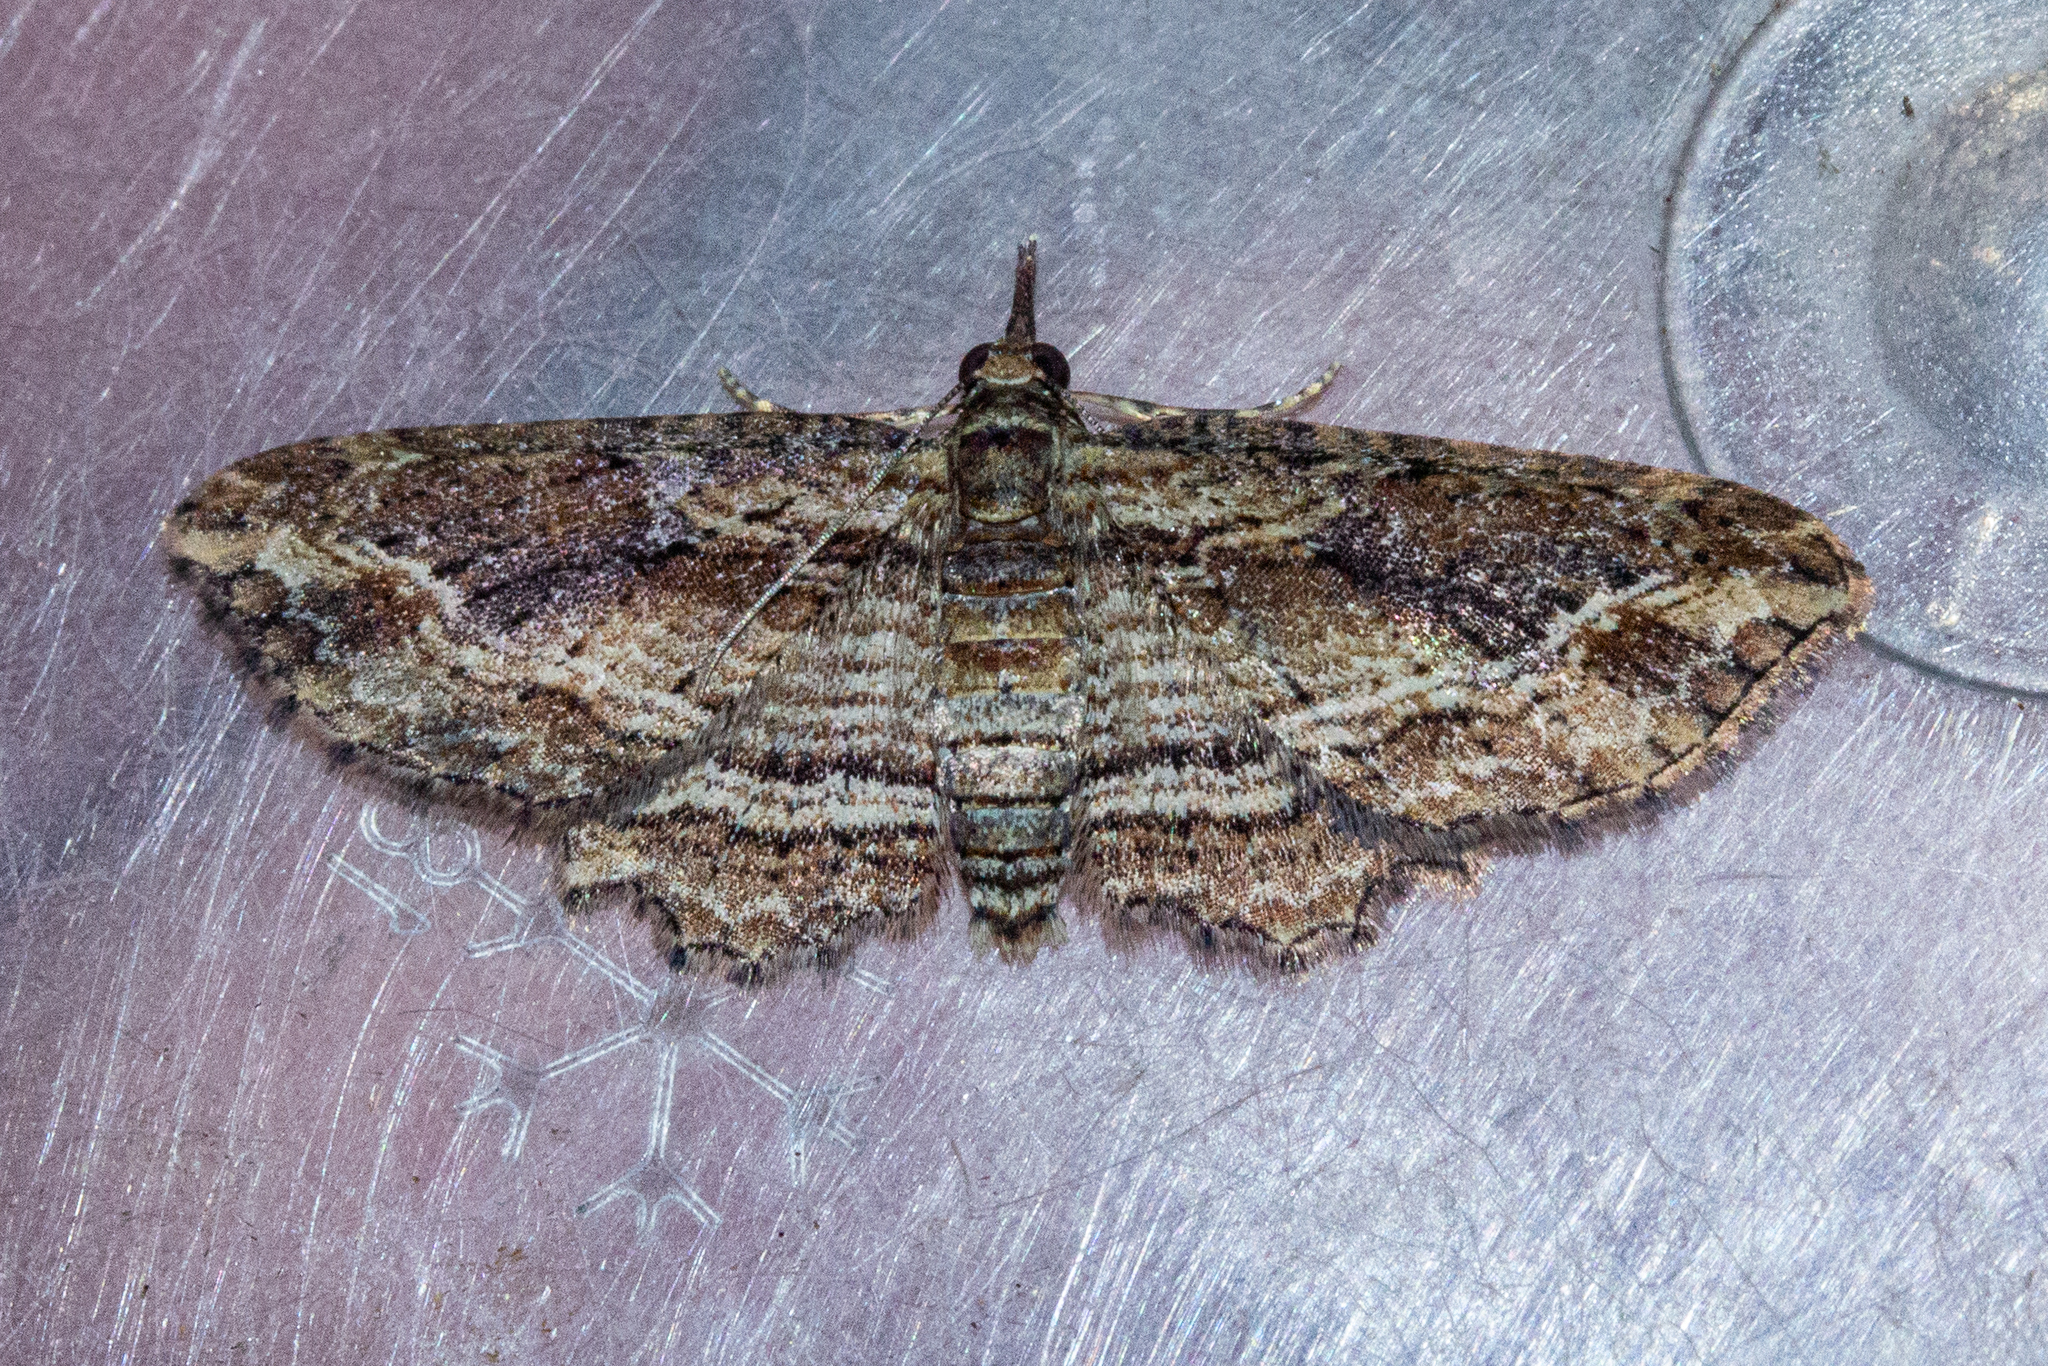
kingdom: Animalia
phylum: Arthropoda
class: Insecta
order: Lepidoptera
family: Geometridae
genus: Chloroclystis
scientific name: Chloroclystis filata
